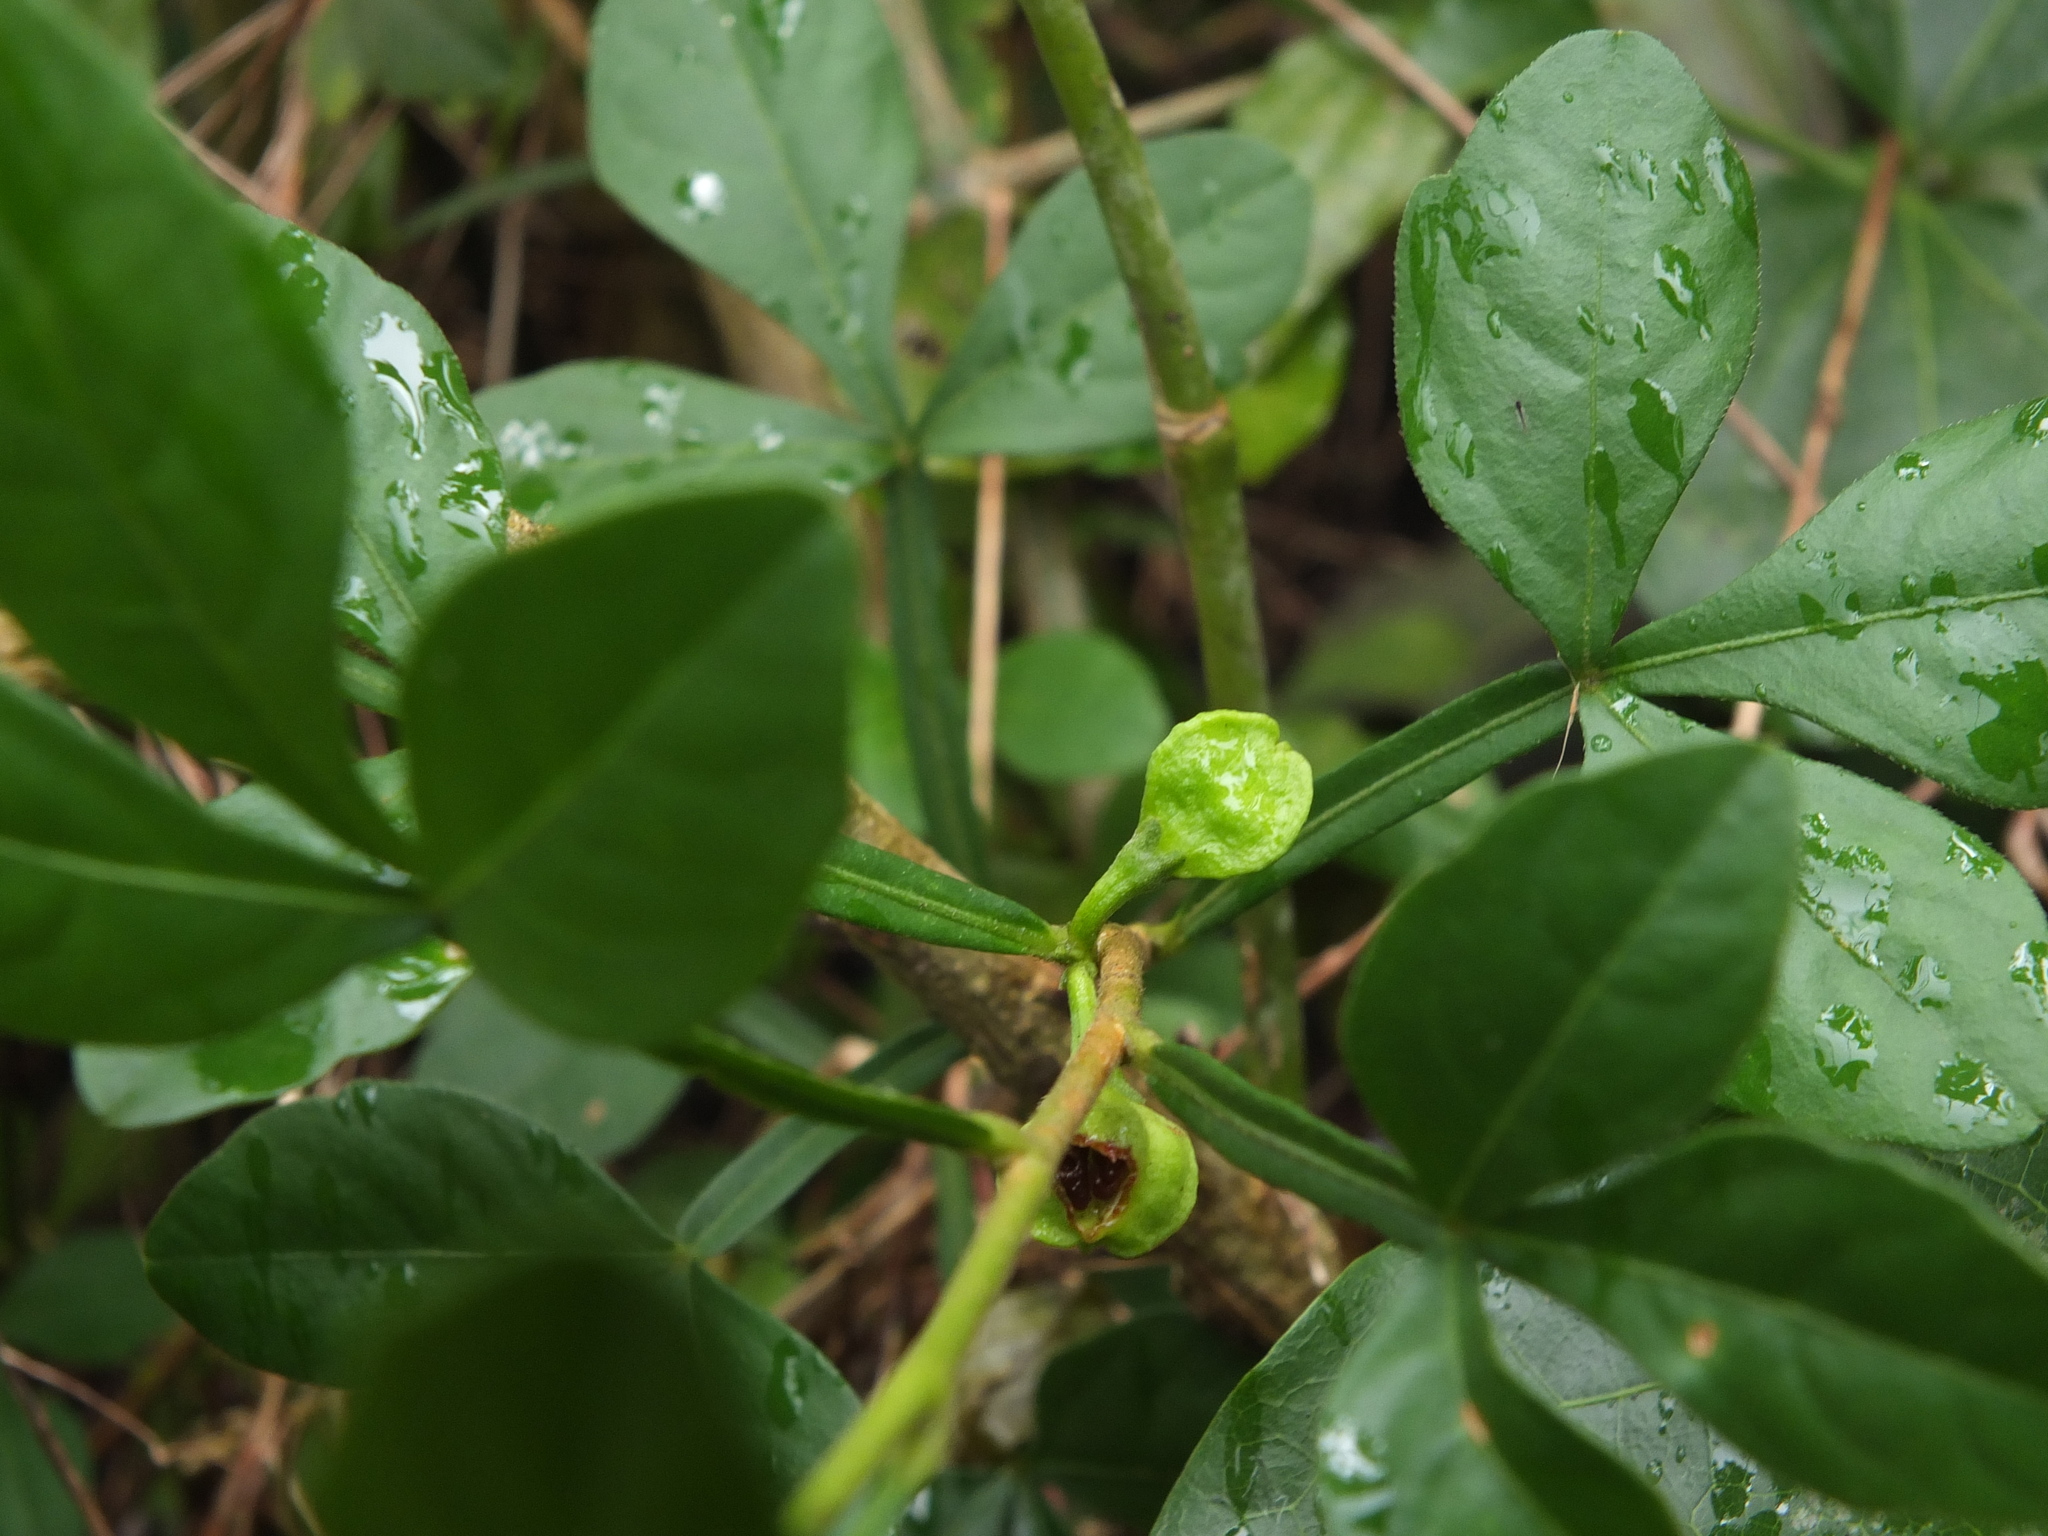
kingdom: Plantae
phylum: Tracheophyta
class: Magnoliopsida
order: Sapindales
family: Meliaceae
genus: Naregamia
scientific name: Naregamia alata
